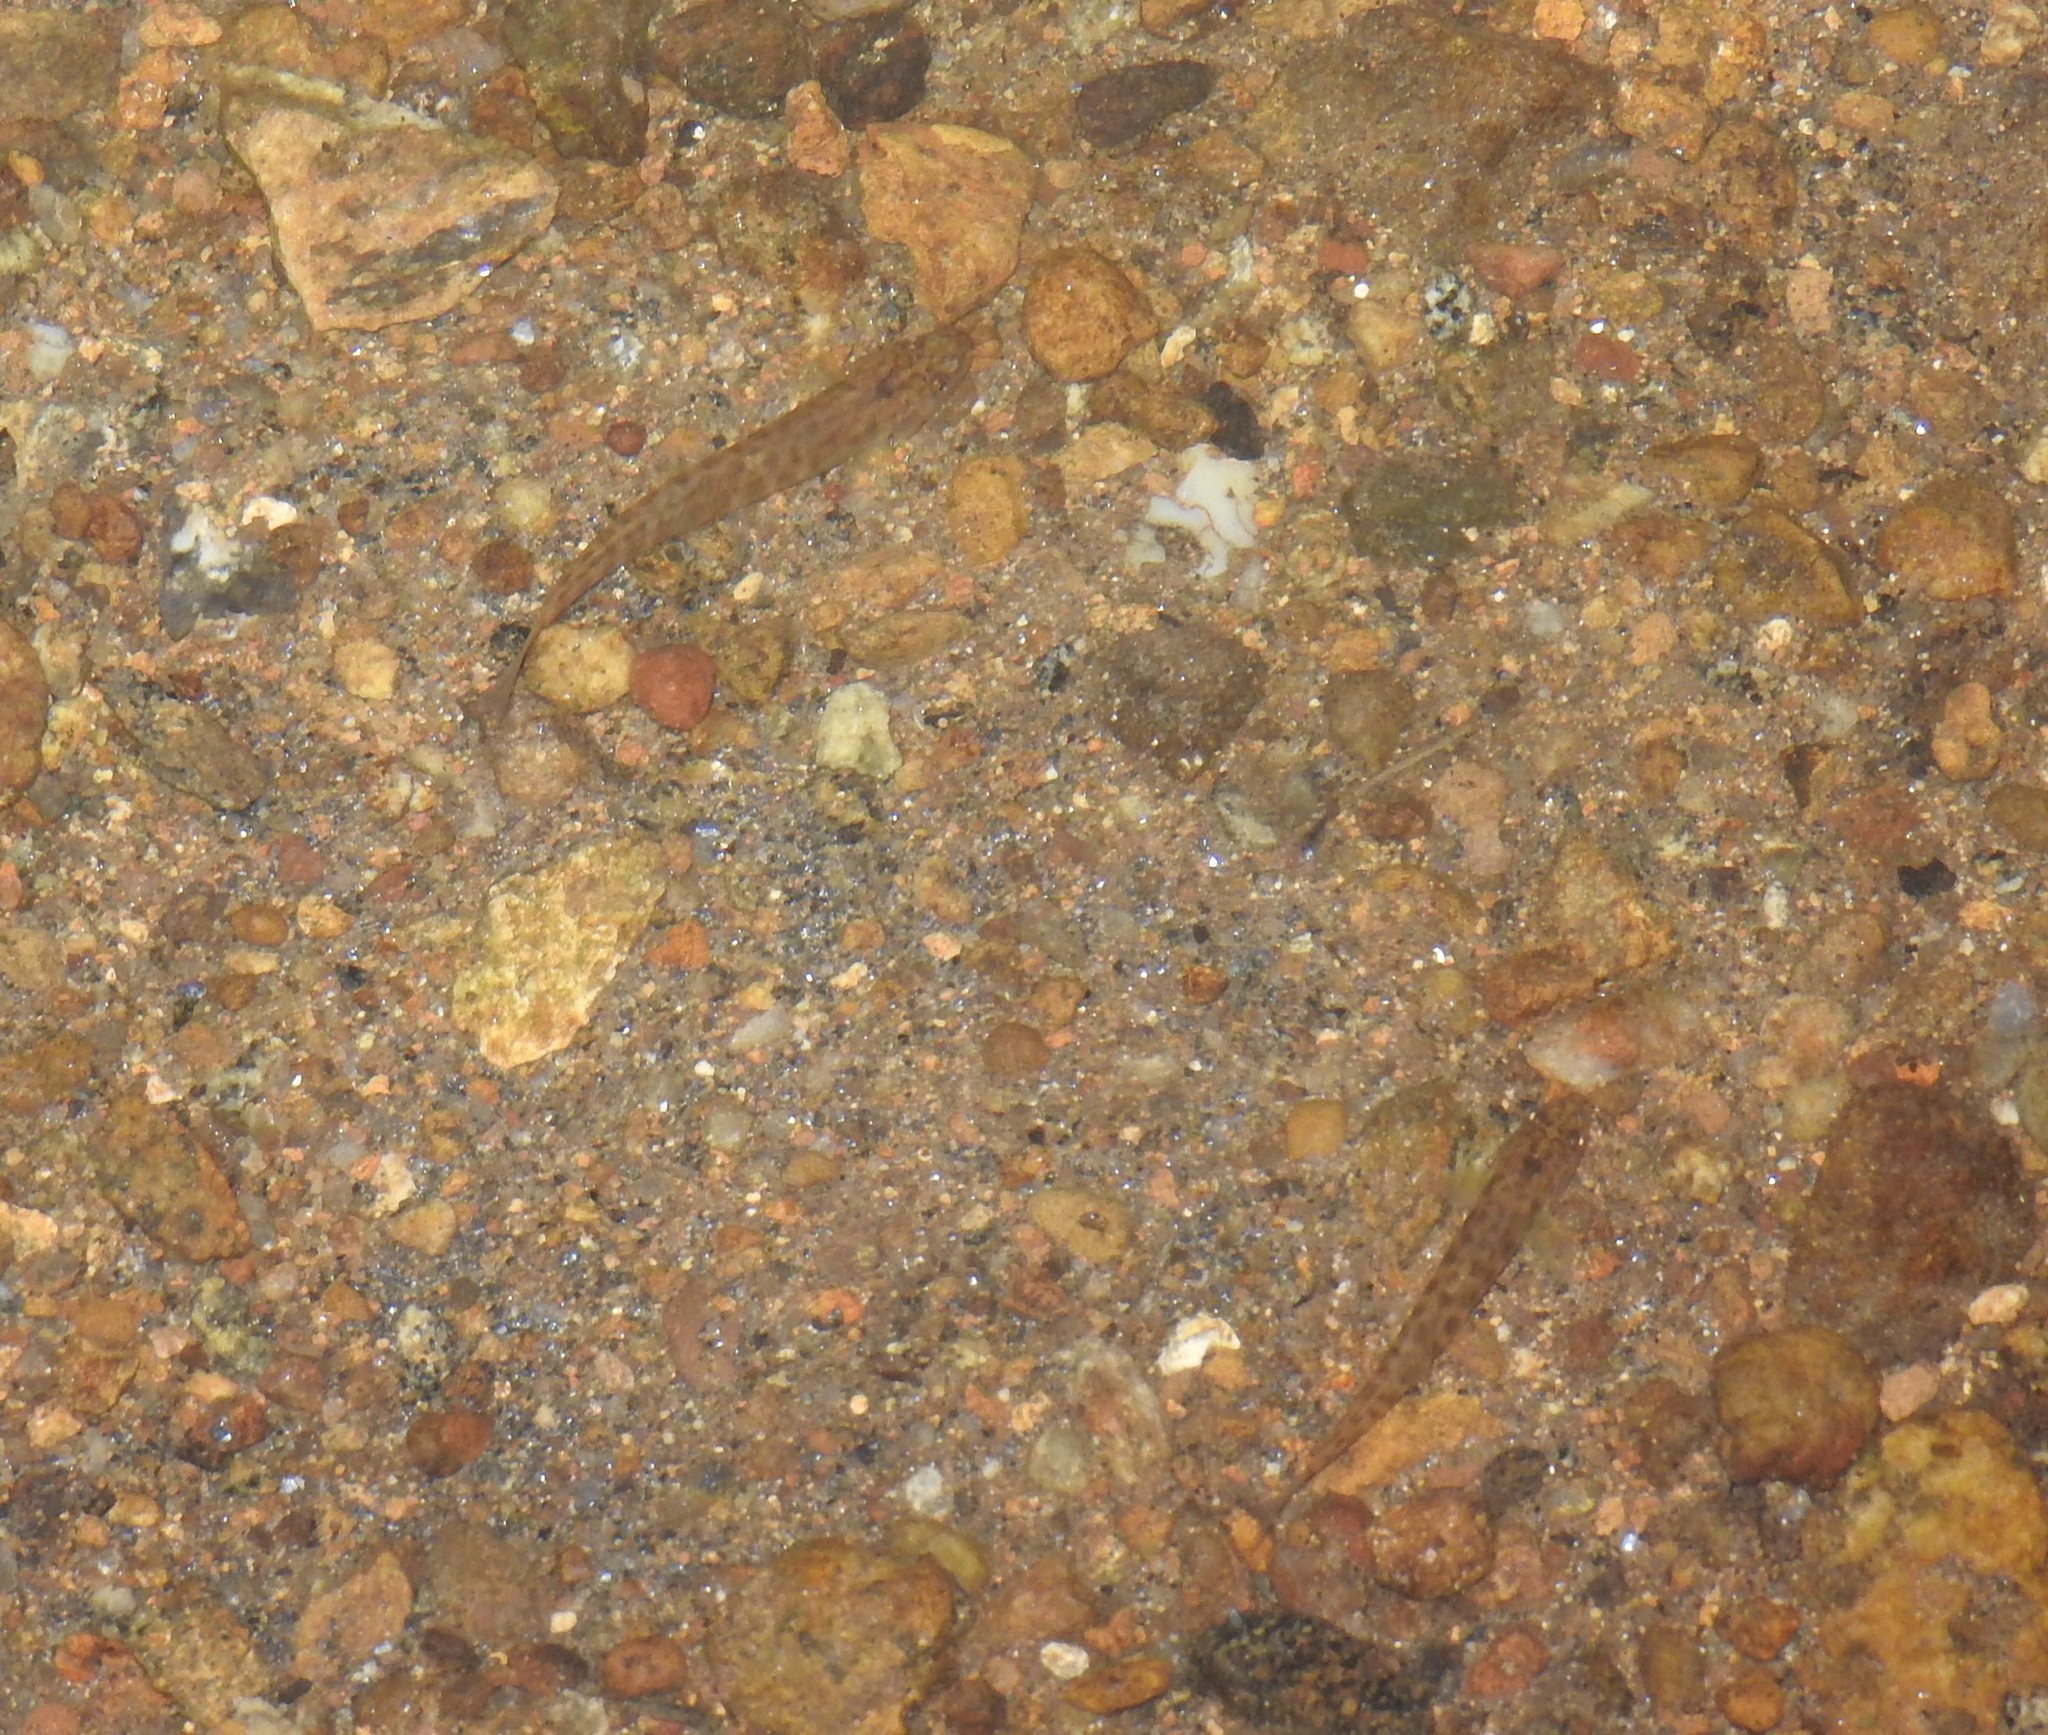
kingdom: Animalia
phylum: Chordata
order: Cypriniformes
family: Nemacheilidae
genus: Schistura
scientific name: Schistura mukambbikaensis
